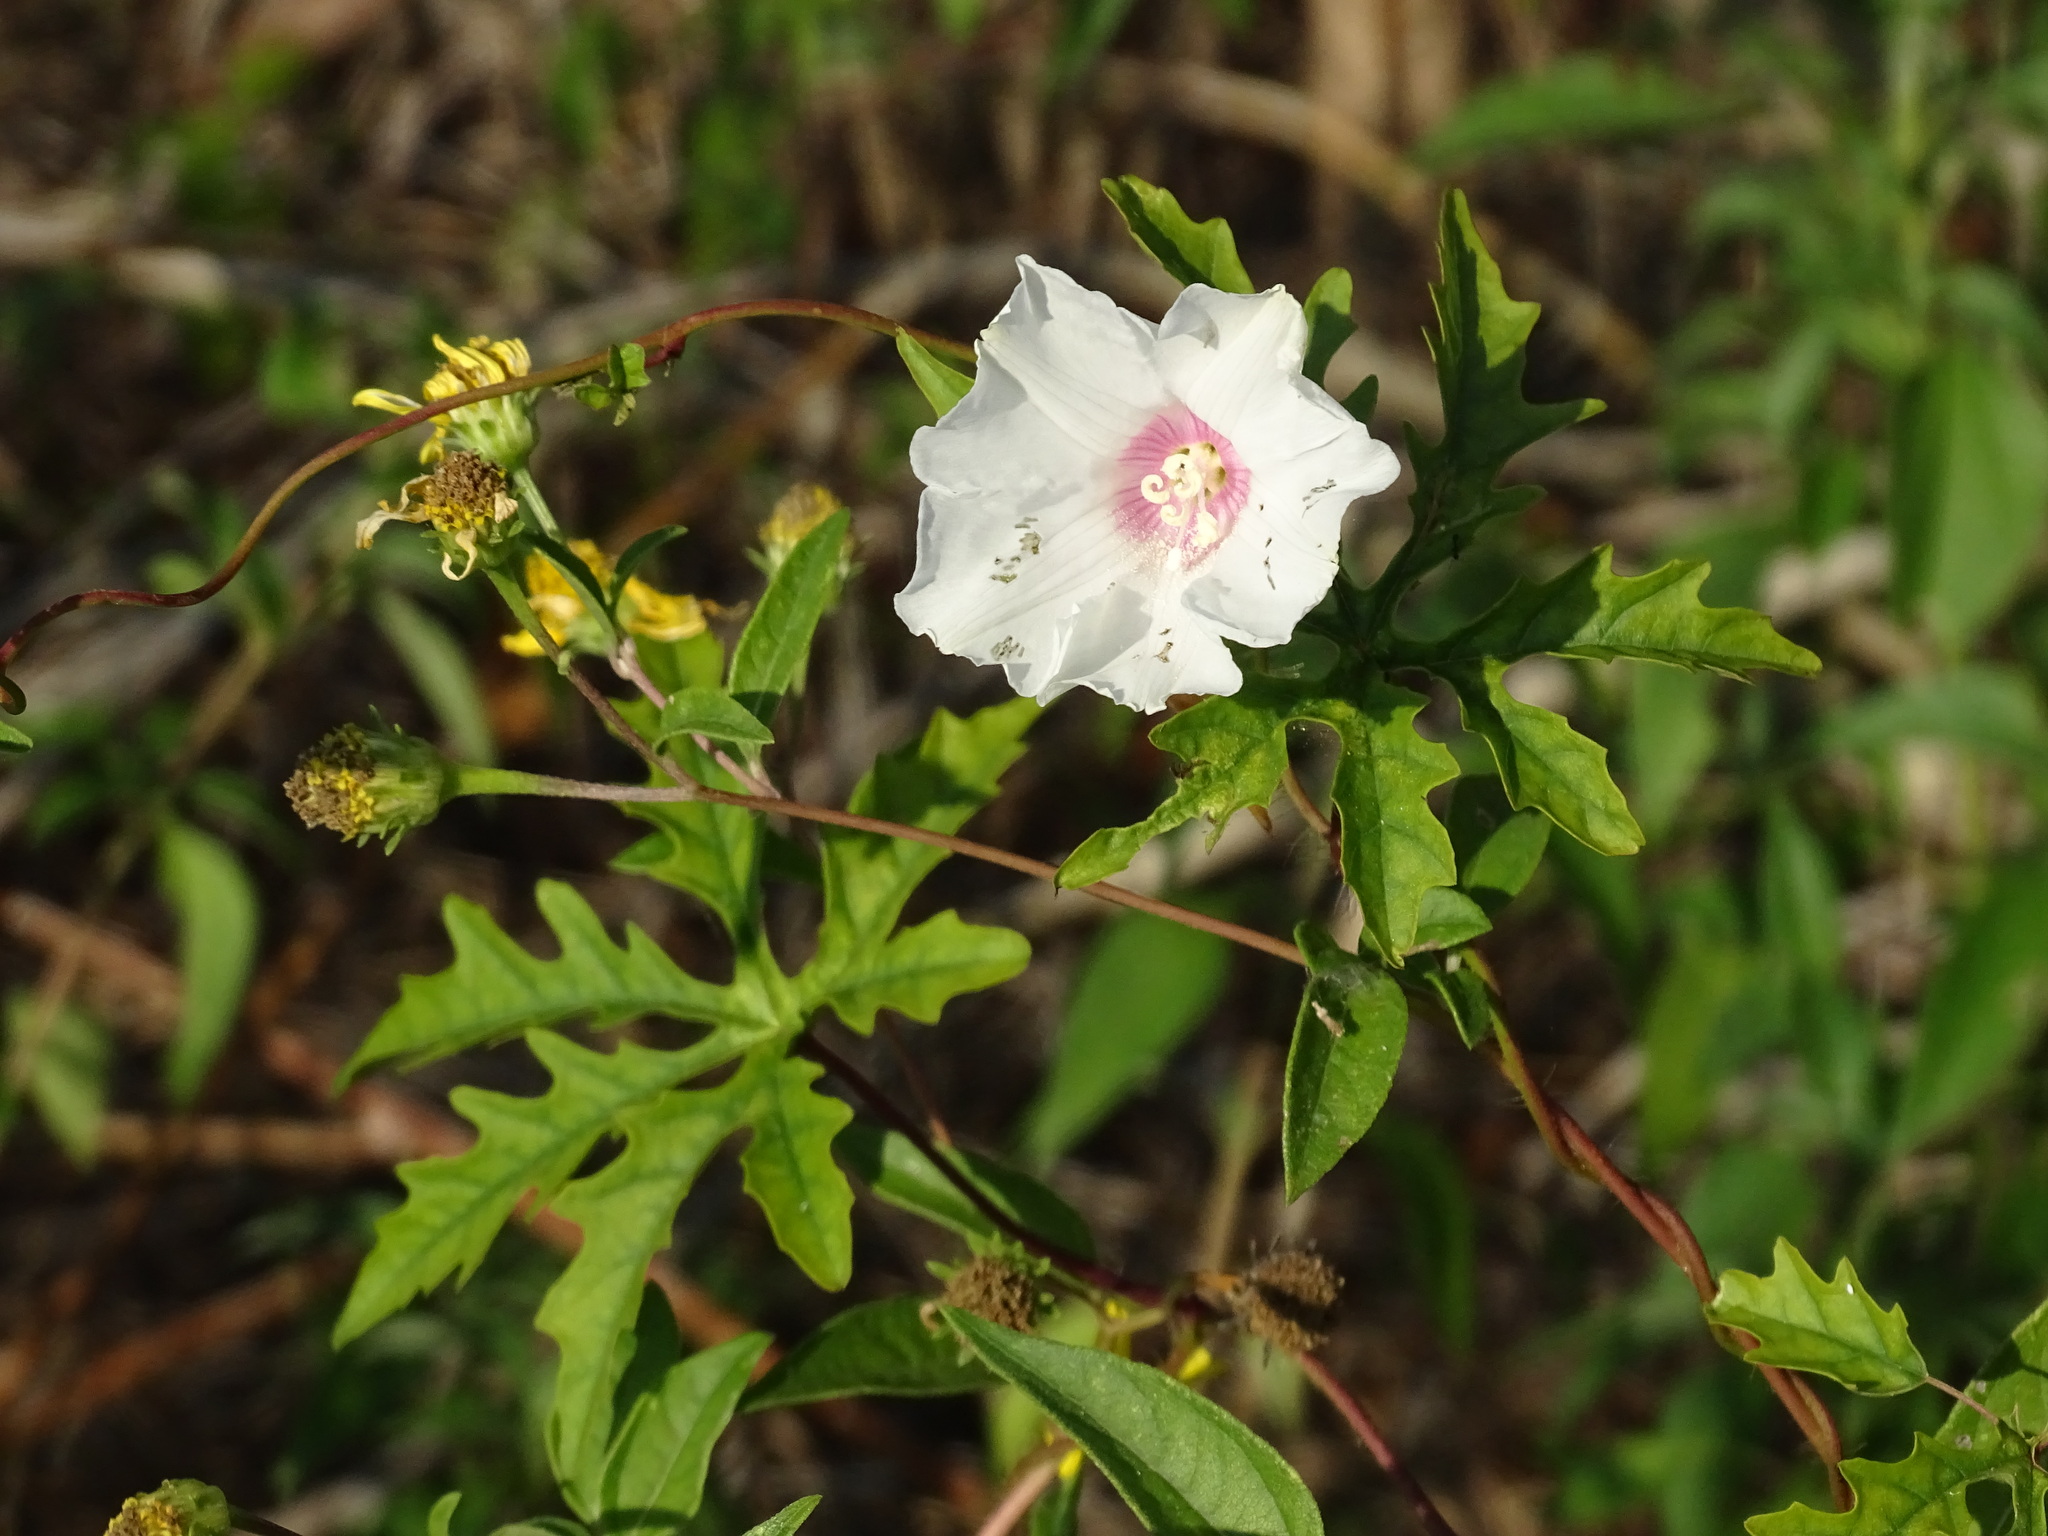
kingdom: Plantae
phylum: Tracheophyta
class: Magnoliopsida
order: Solanales
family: Convolvulaceae
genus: Distimake
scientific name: Distimake dissectus
